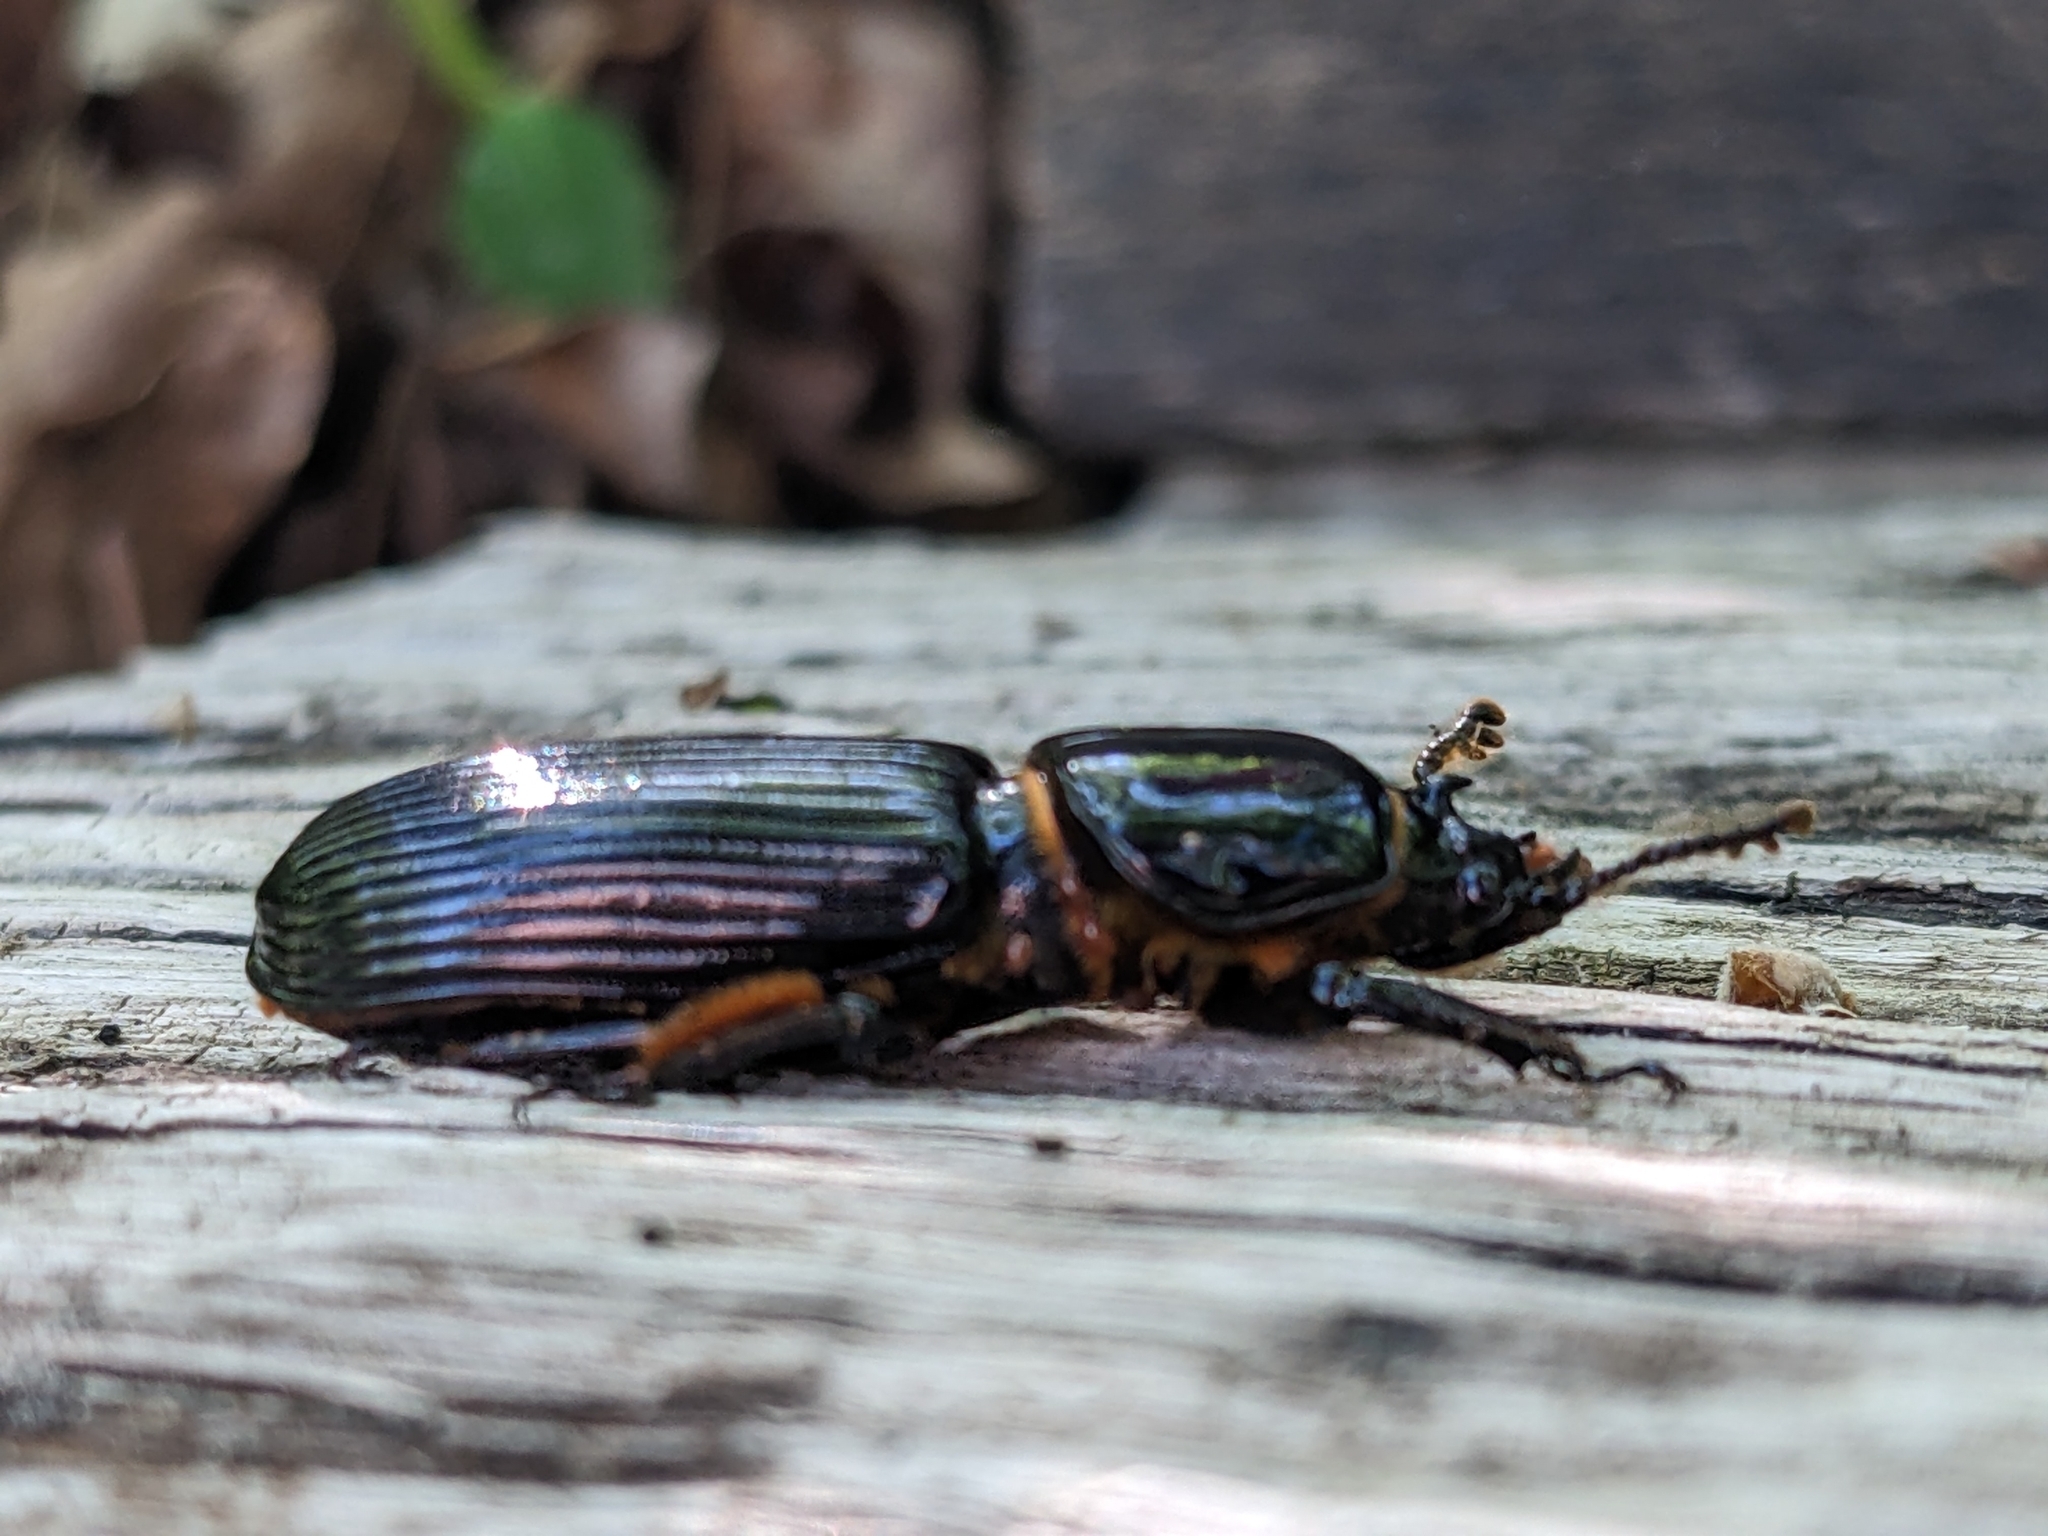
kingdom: Animalia
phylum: Arthropoda
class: Insecta
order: Coleoptera
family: Passalidae
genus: Odontotaenius
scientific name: Odontotaenius disjunctus
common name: Patent leather beetle
